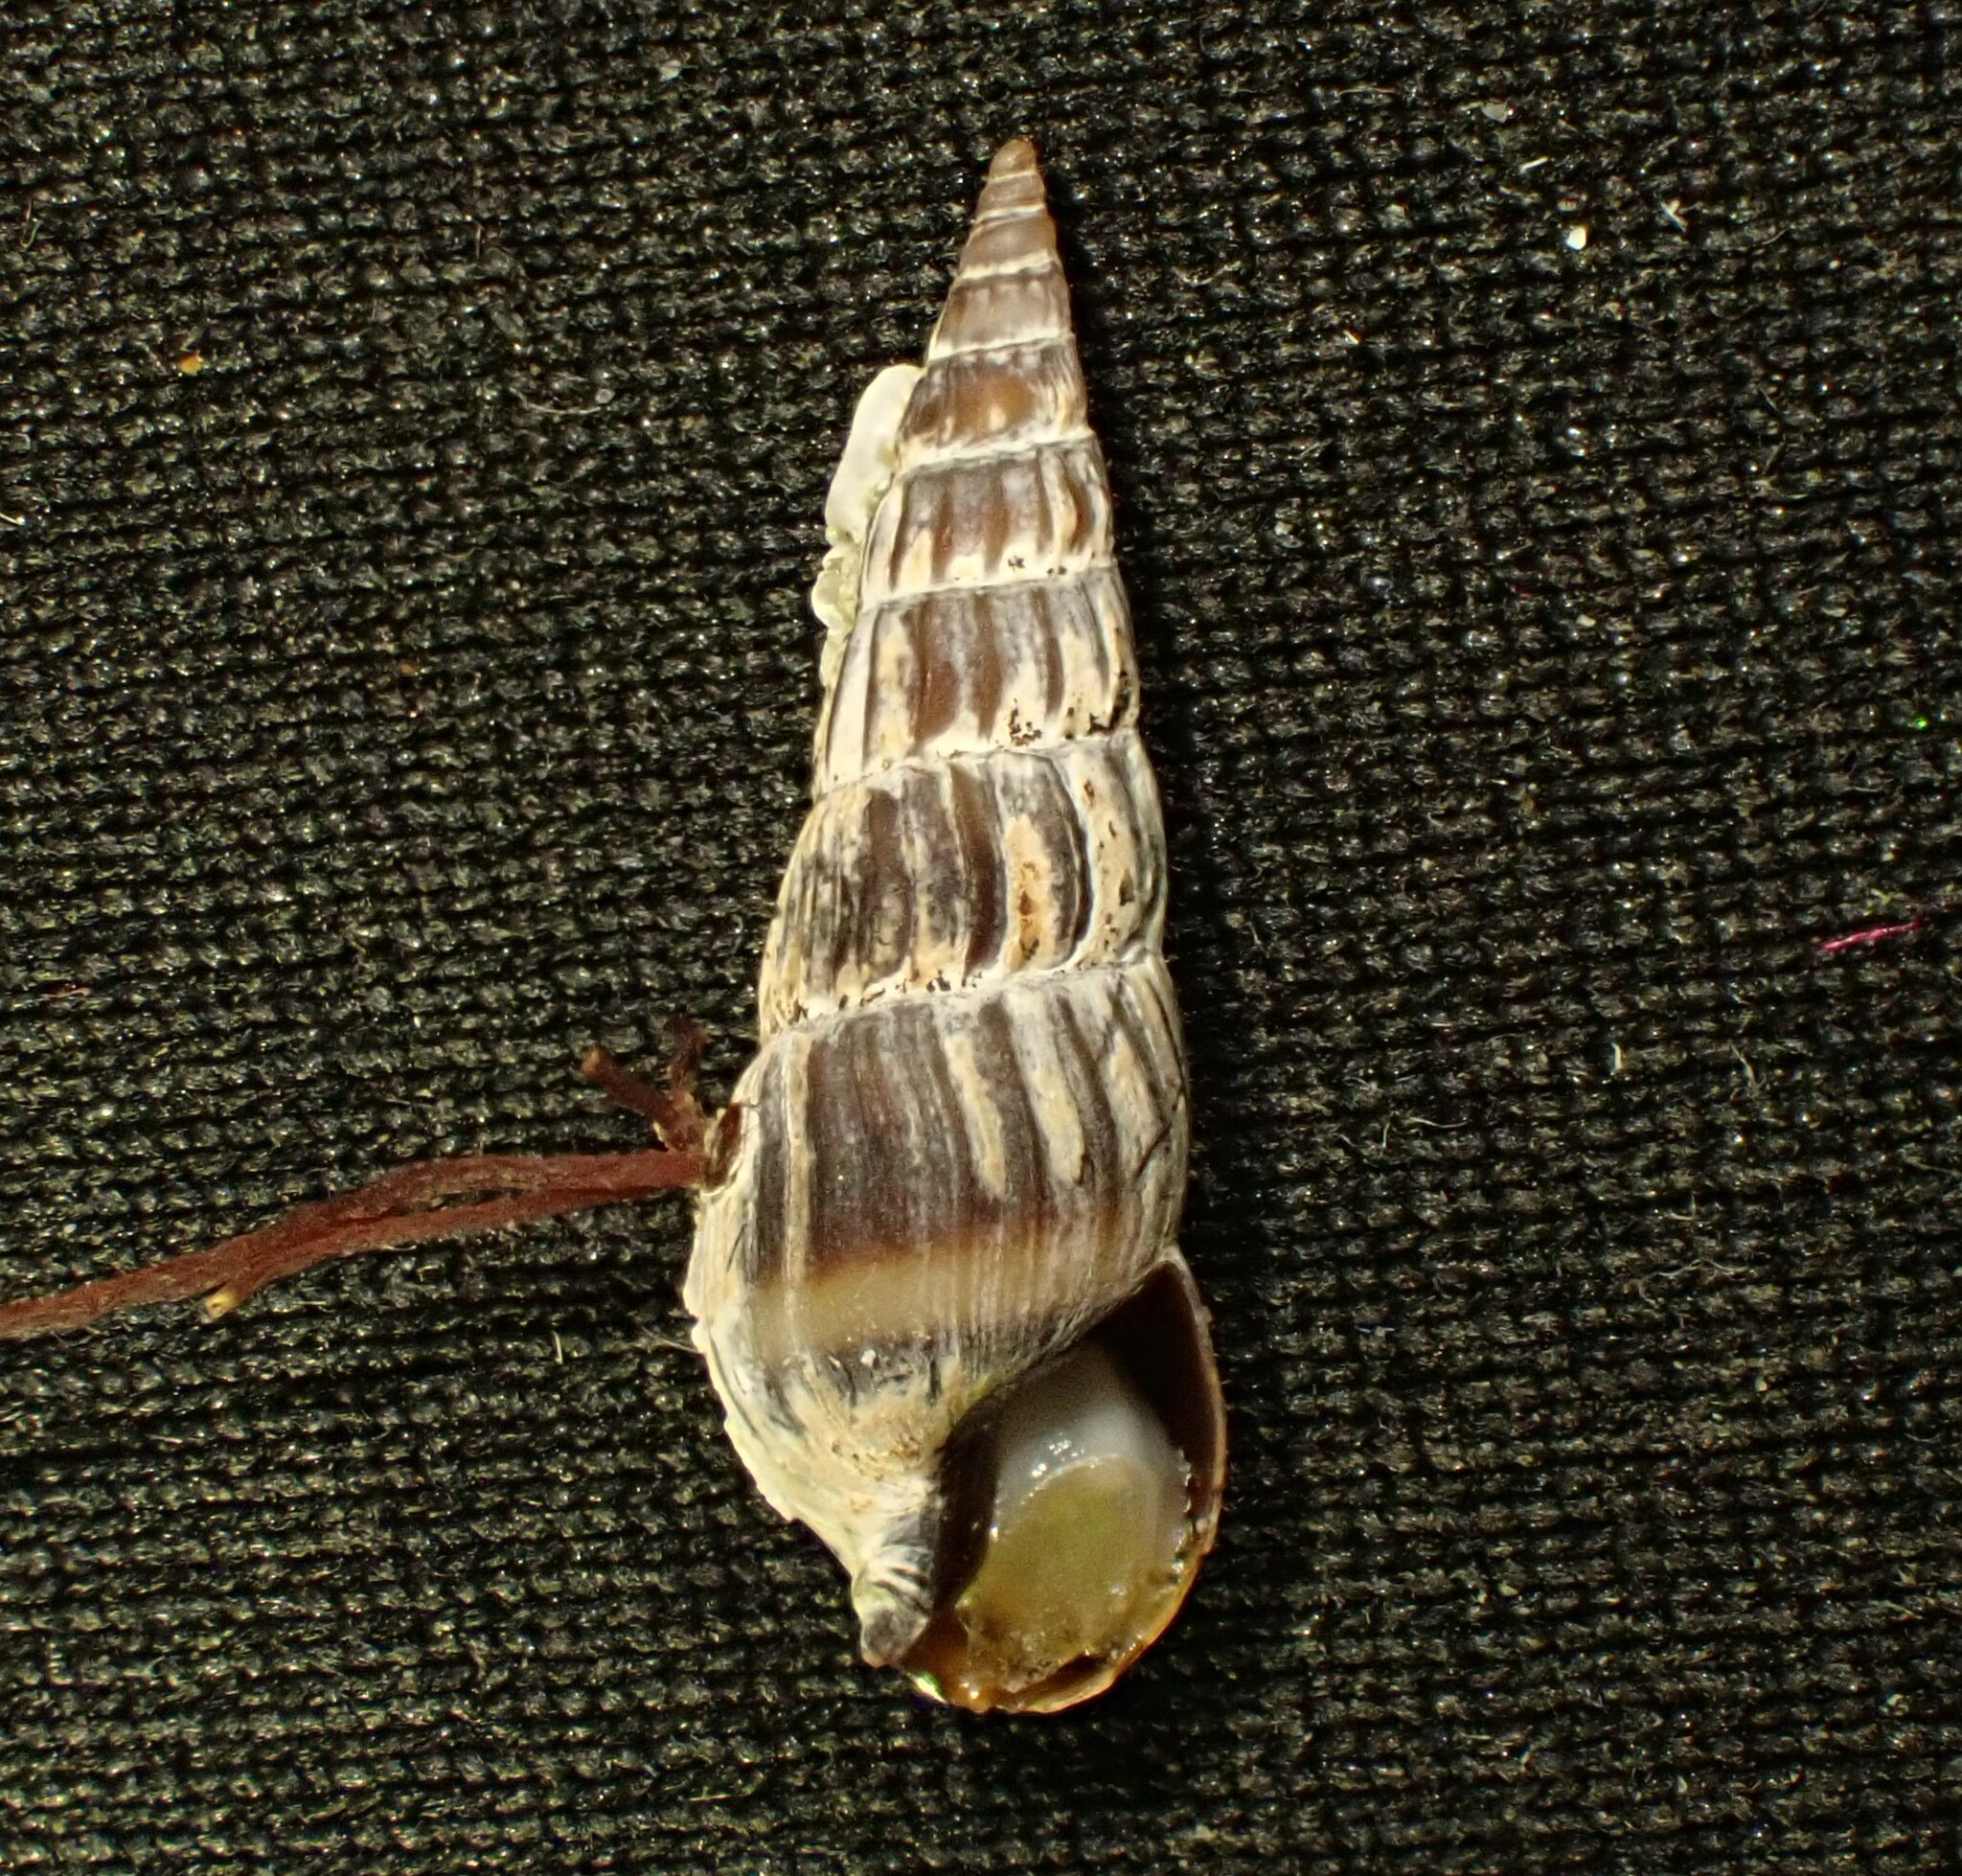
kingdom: Animalia
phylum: Mollusca
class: Gastropoda
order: Neogastropoda
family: Terebridae
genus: Duplicaria
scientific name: Duplicaria tristis
